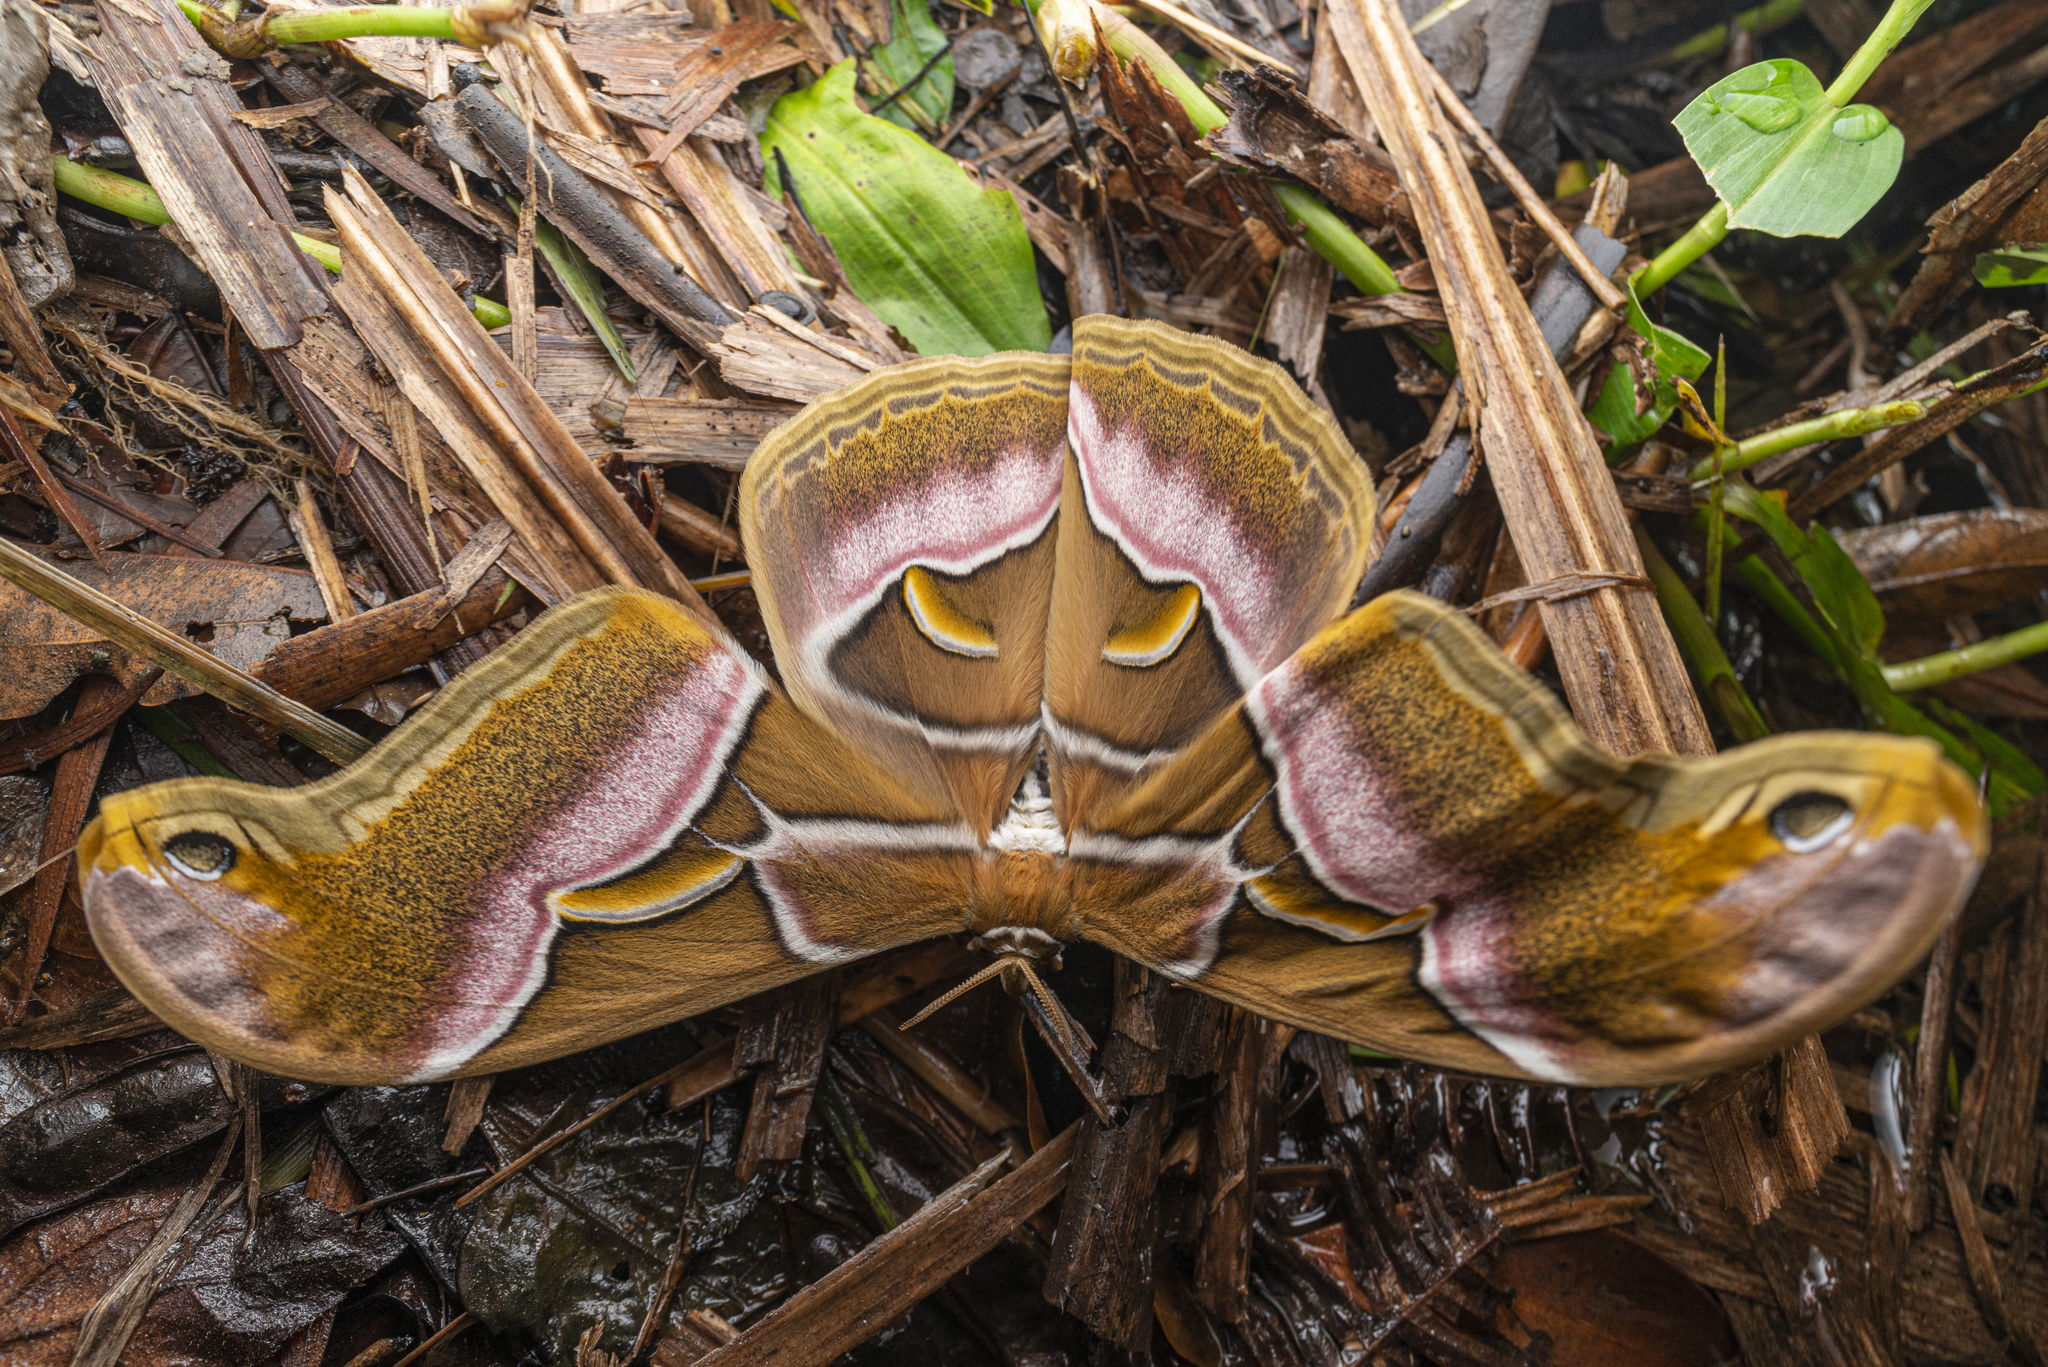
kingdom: Animalia
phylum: Arthropoda
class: Insecta
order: Lepidoptera
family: Saturniidae
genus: Samia
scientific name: Samia wangi
